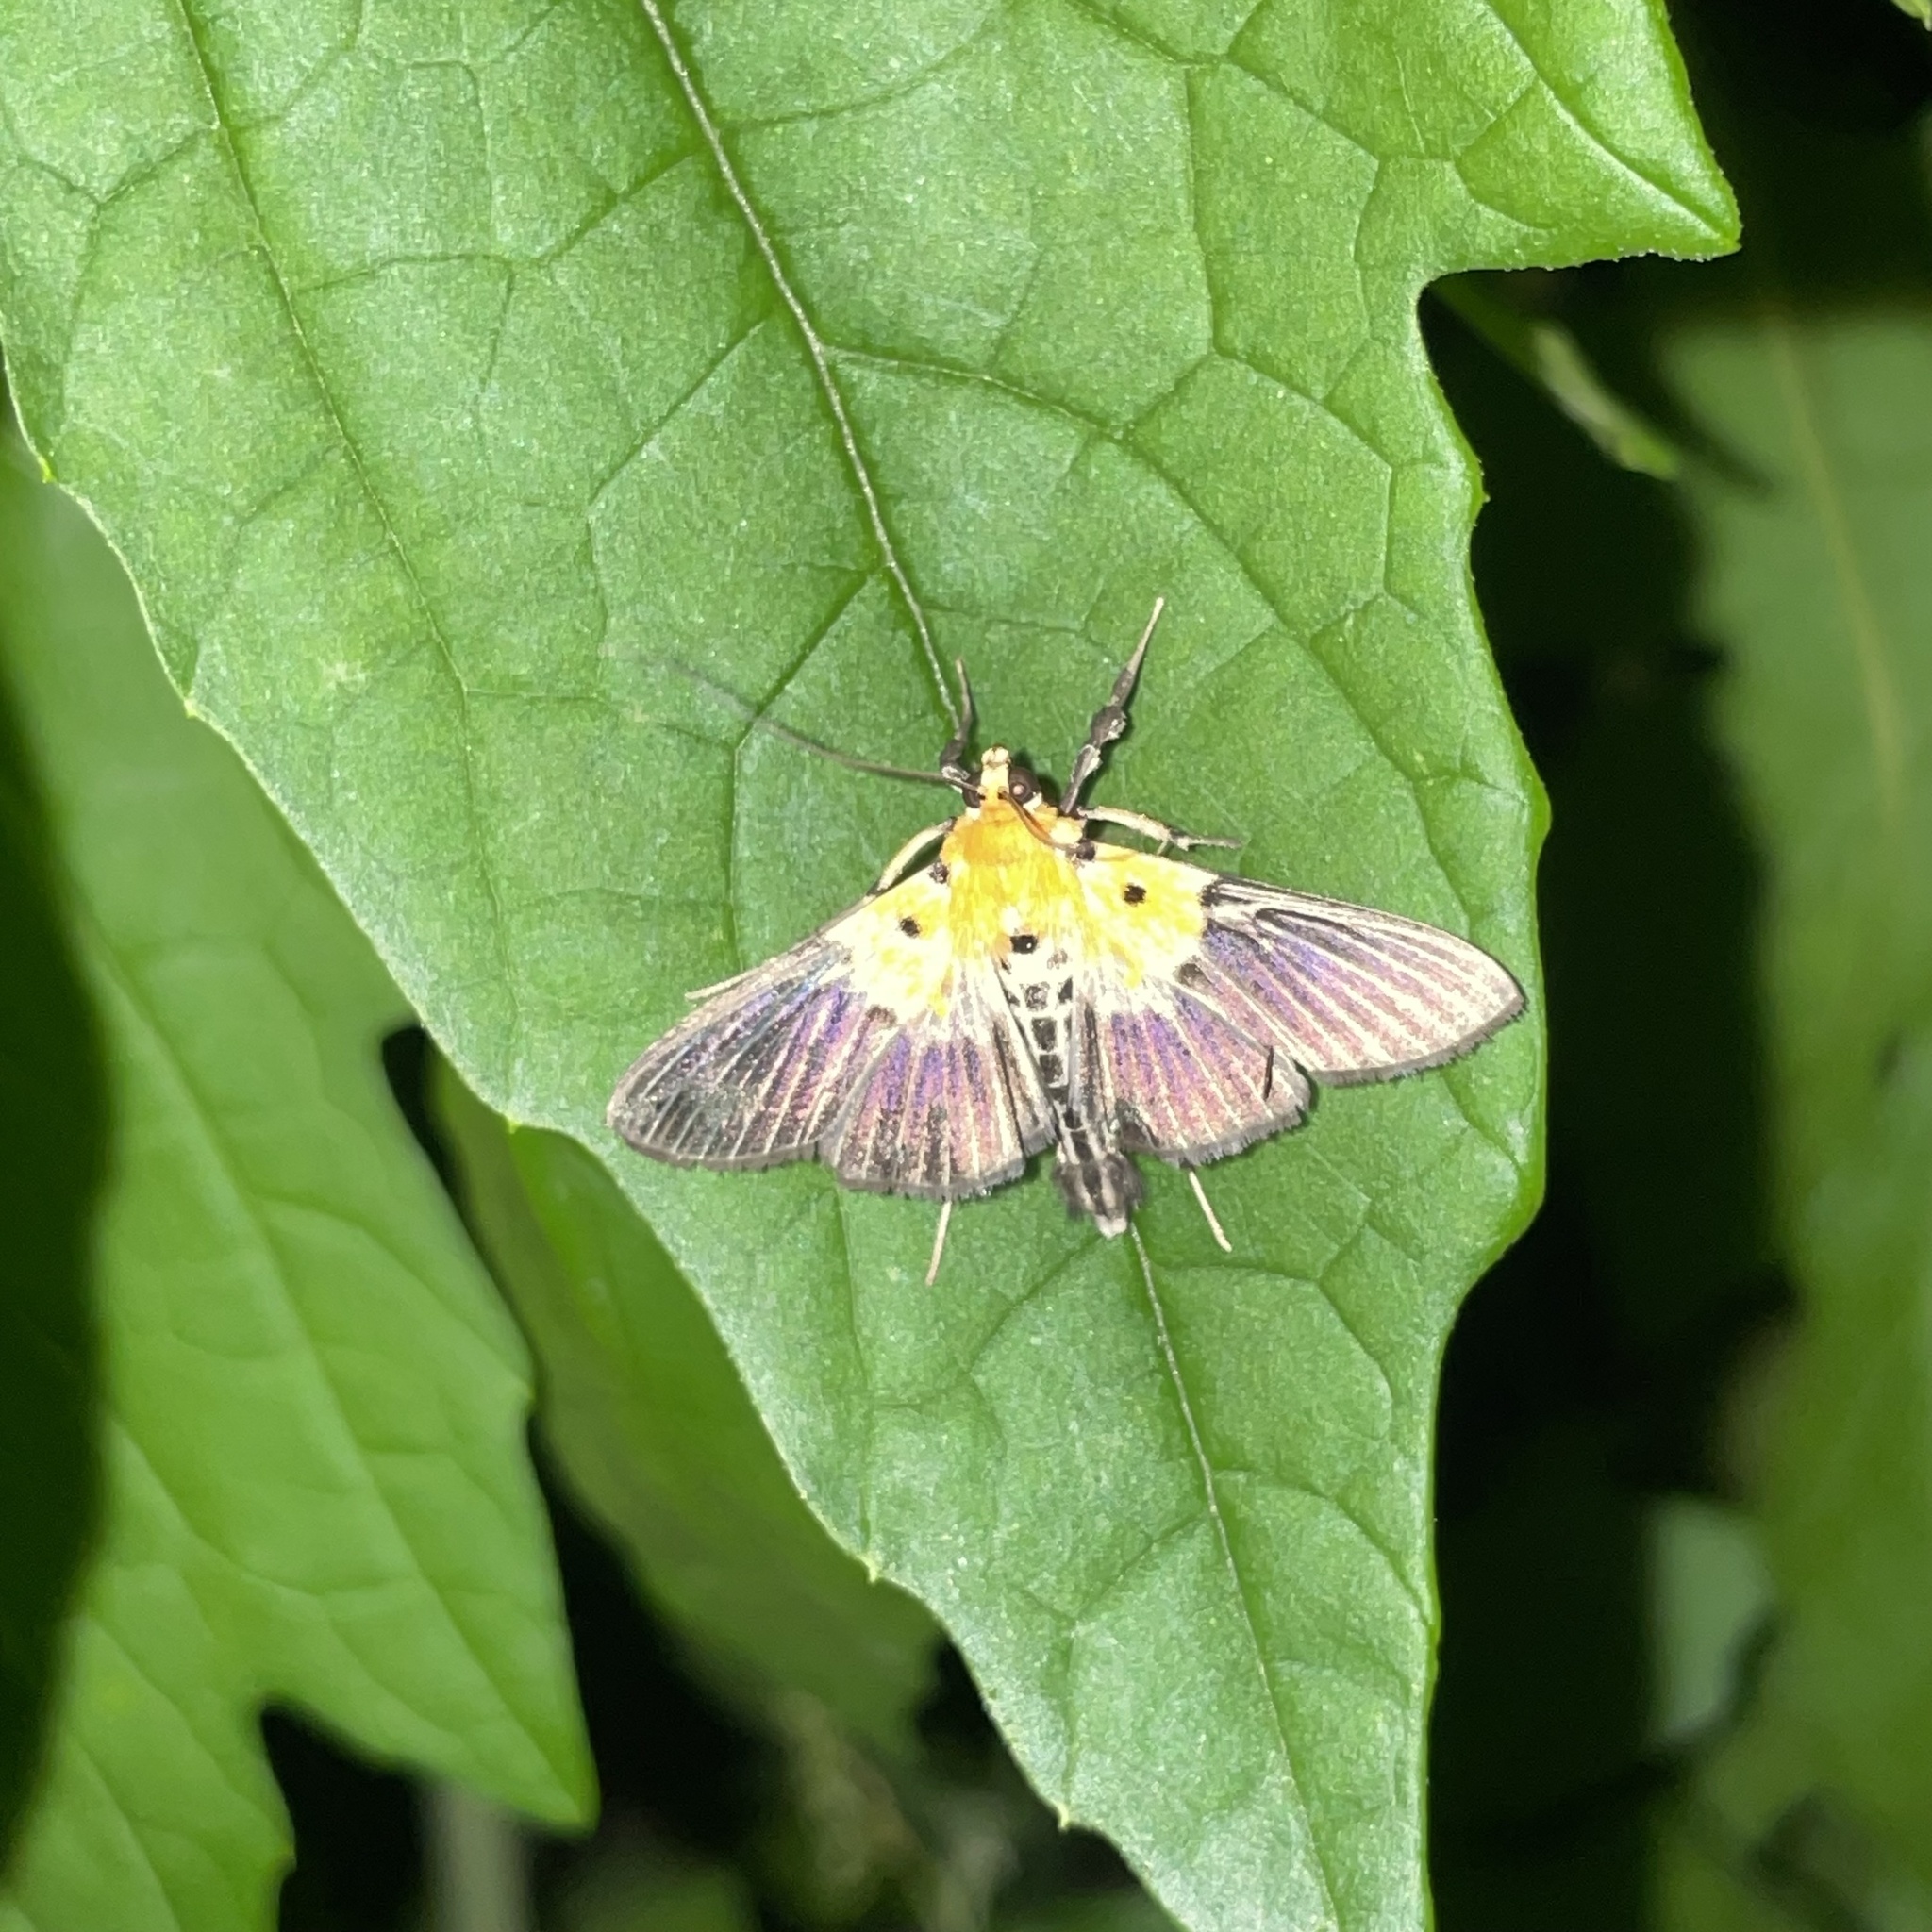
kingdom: Animalia
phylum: Arthropoda
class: Insecta
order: Lepidoptera
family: Crambidae
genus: Nevrina
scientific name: Nevrina procopia
